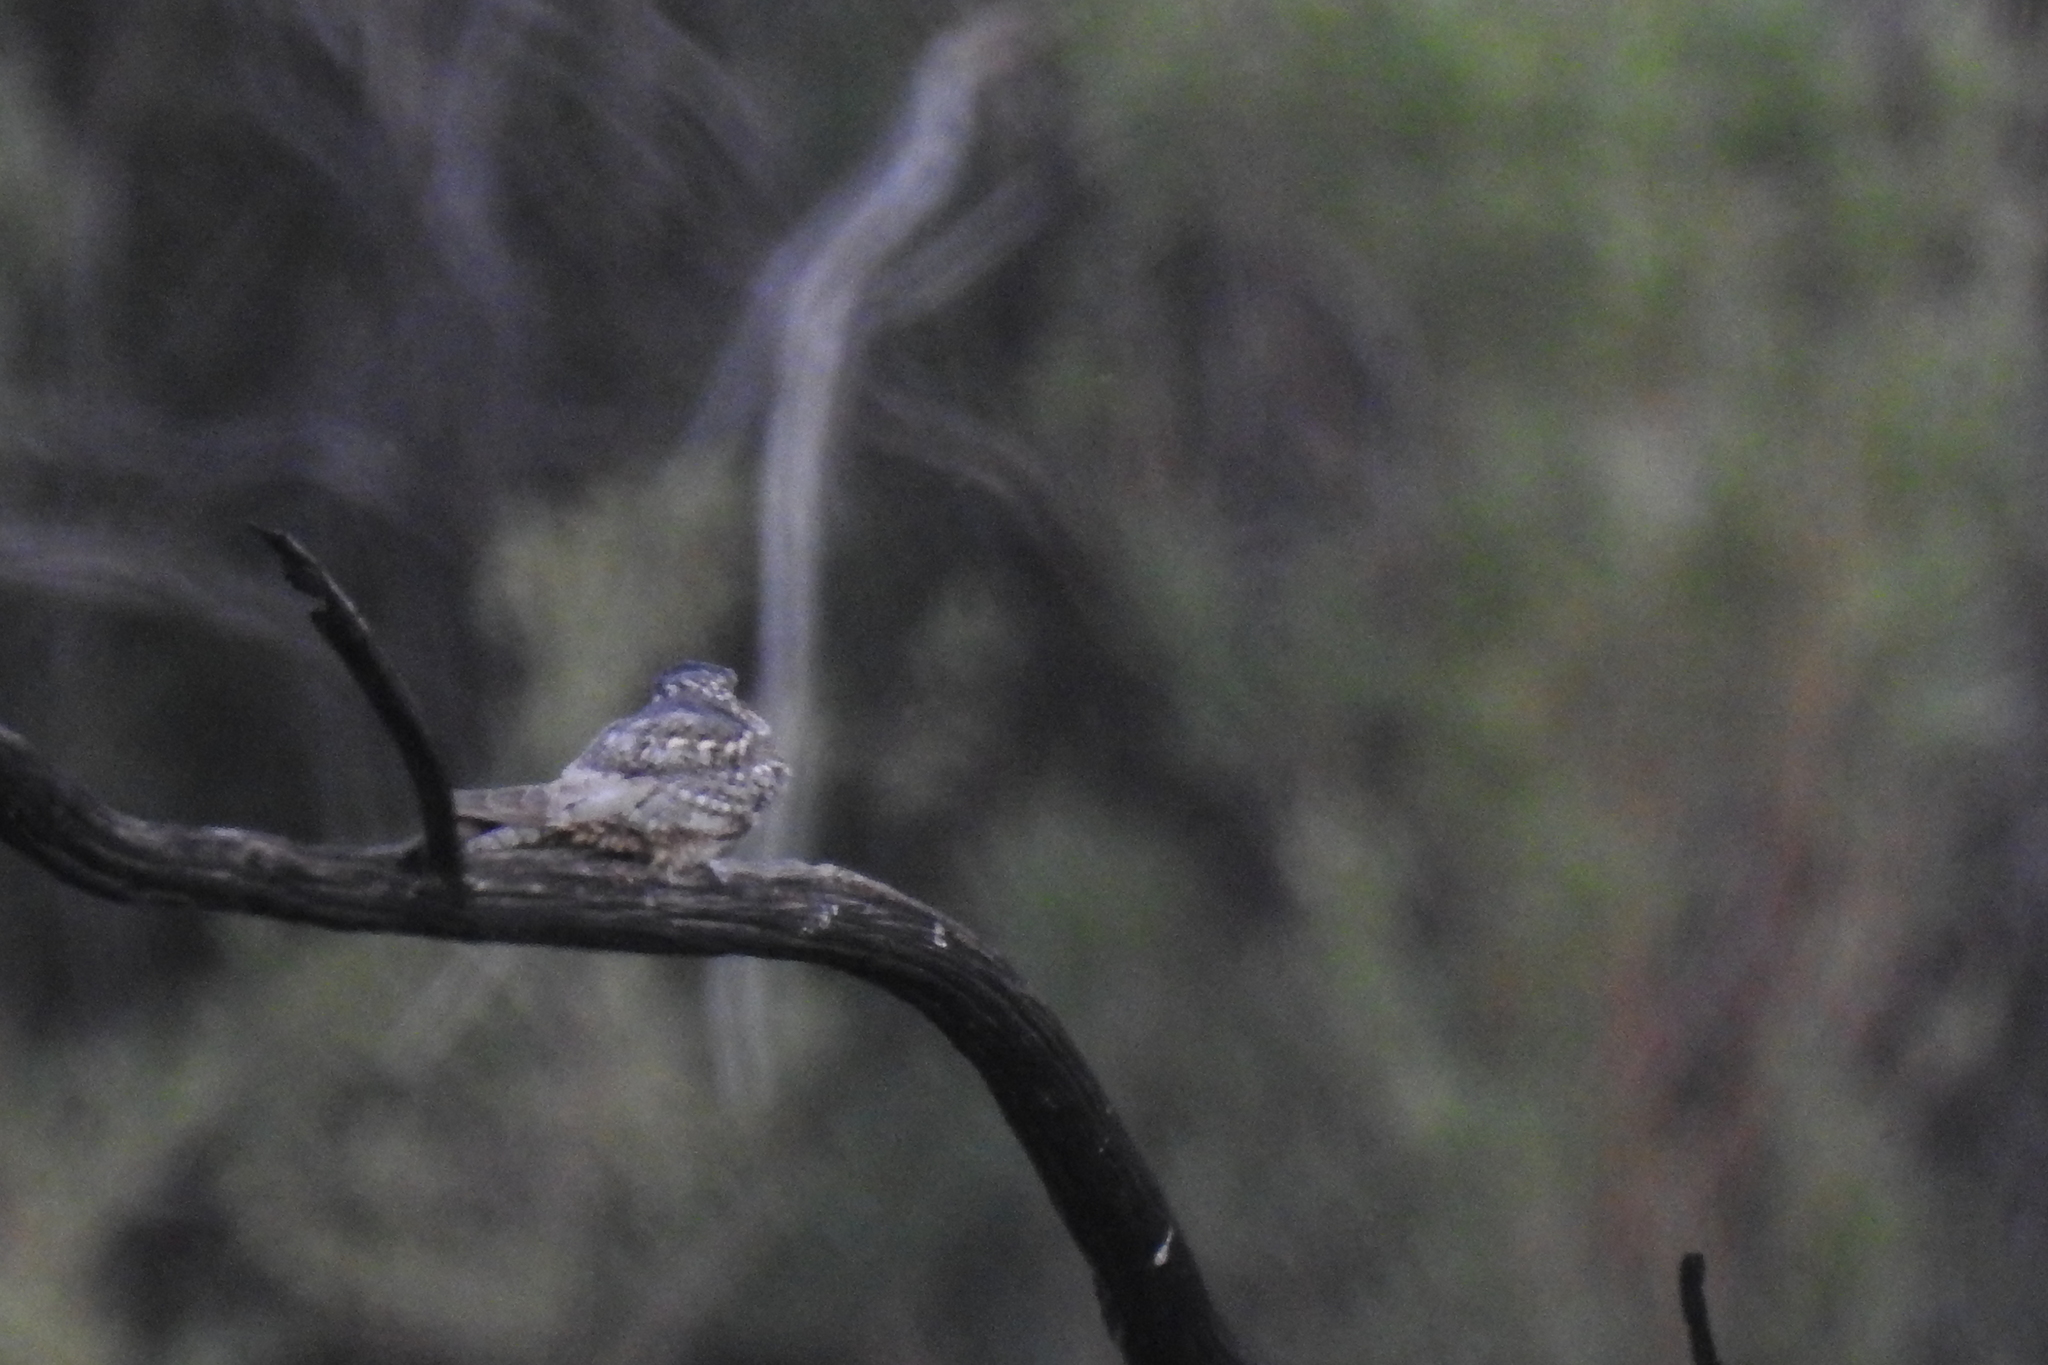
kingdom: Animalia
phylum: Chordata
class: Aves
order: Caprimulgiformes
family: Caprimulgidae
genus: Chordeiles
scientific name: Chordeiles acutipennis
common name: Lesser nighthawk
